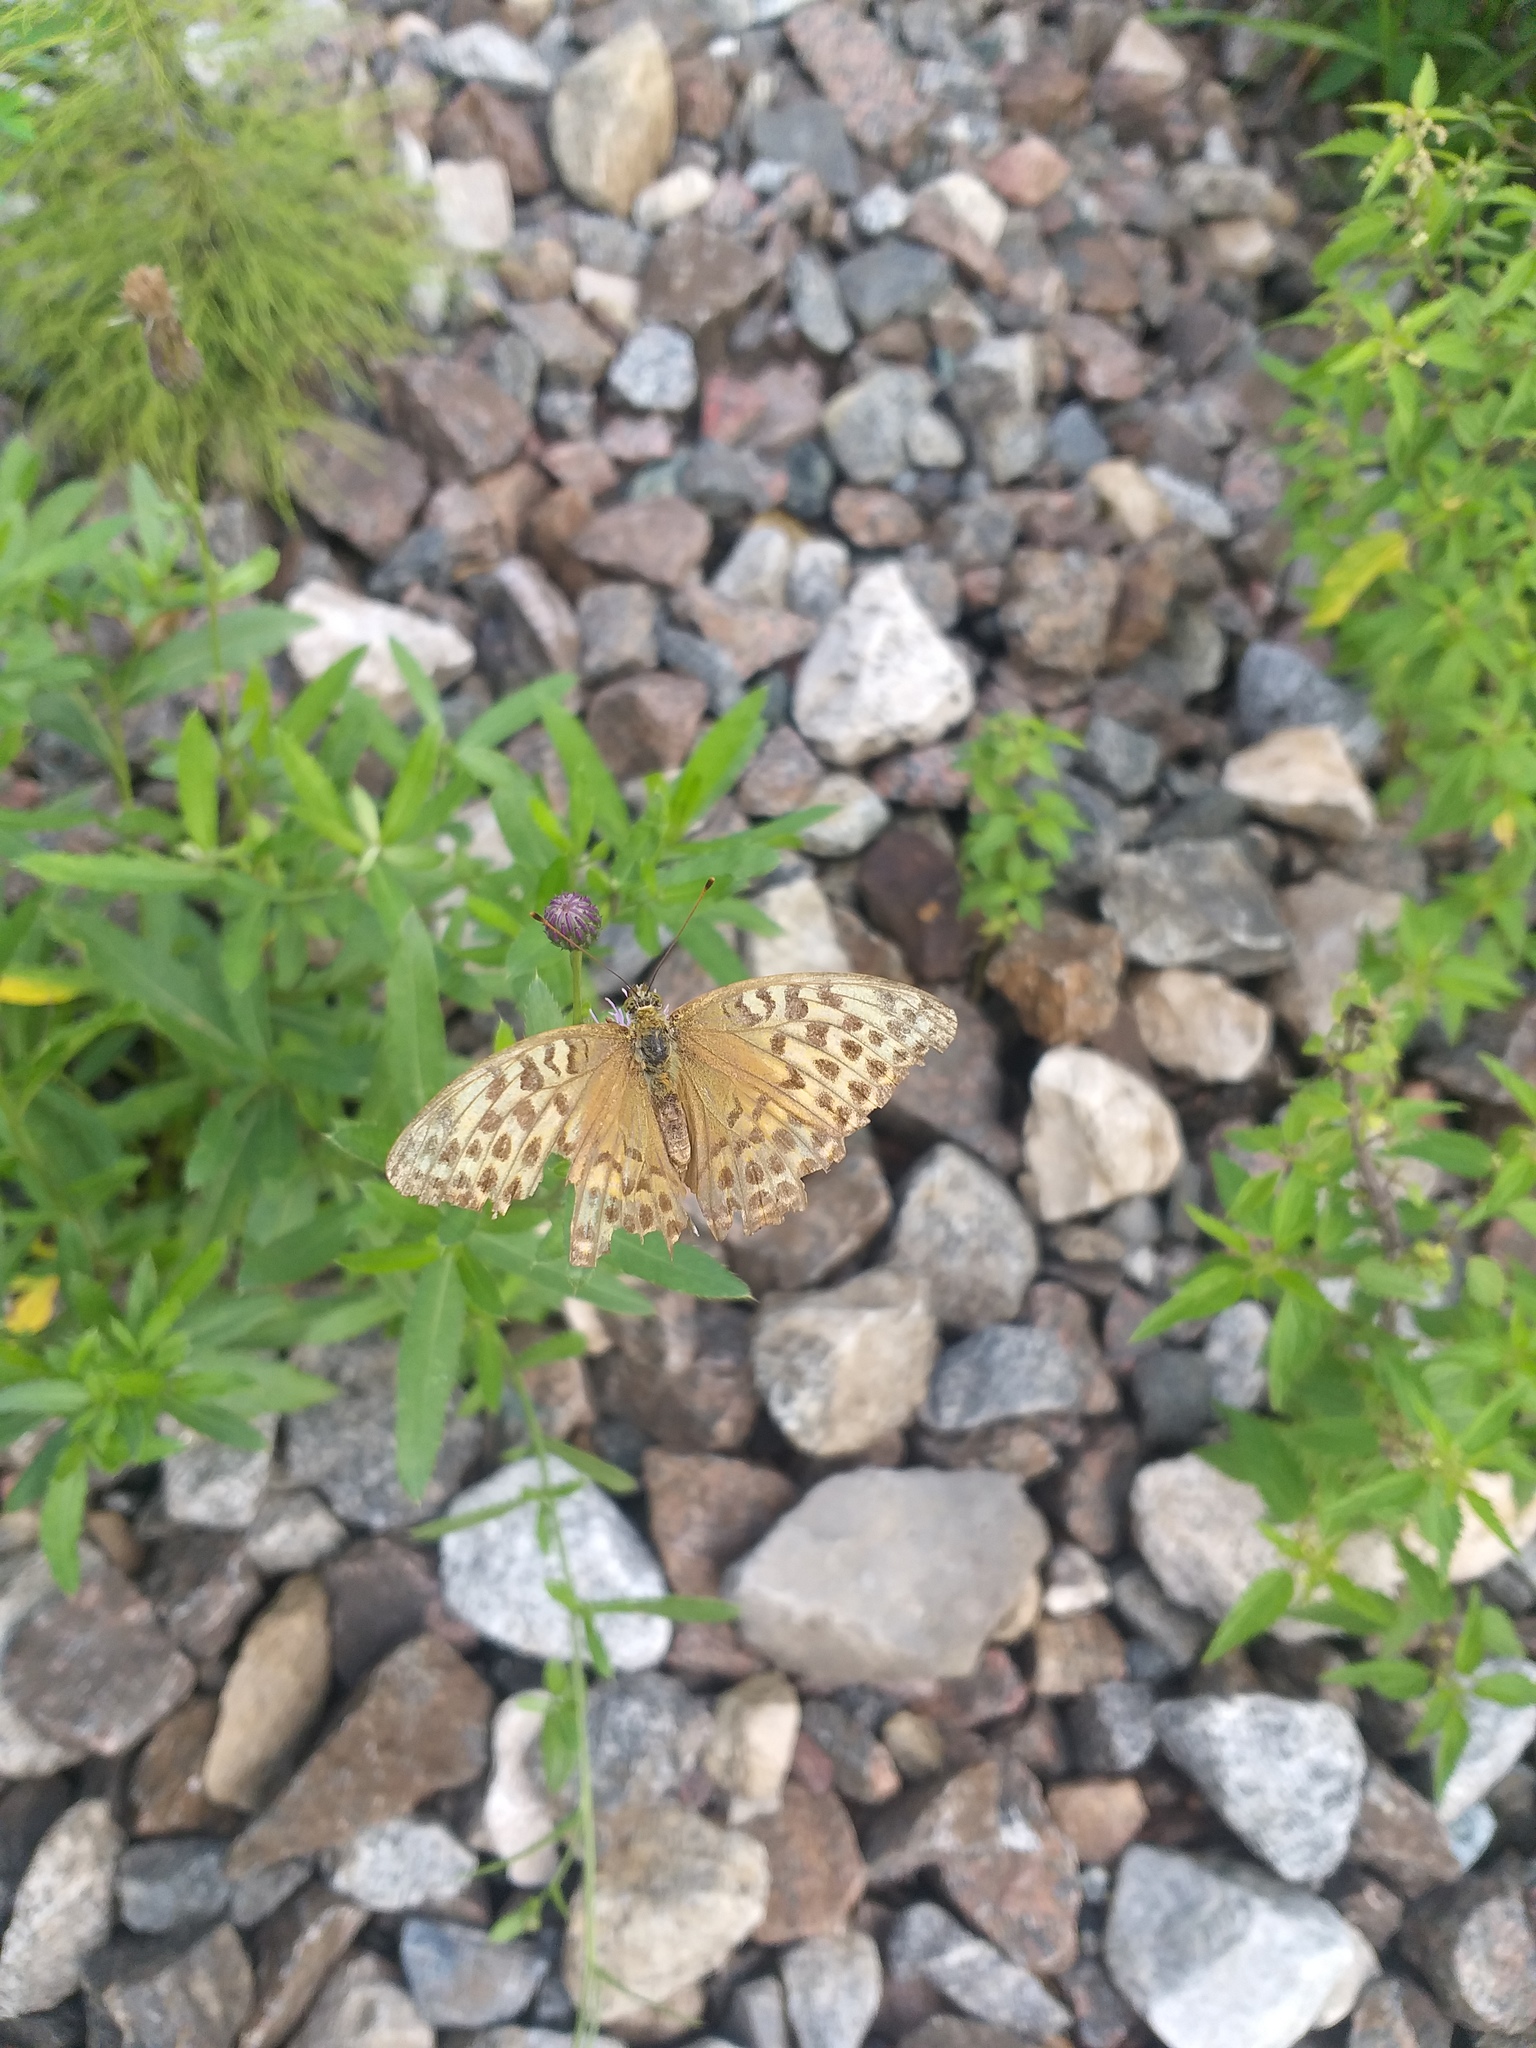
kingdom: Animalia
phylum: Arthropoda
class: Insecta
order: Lepidoptera
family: Nymphalidae
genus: Argynnis
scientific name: Argynnis paphia
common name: Silver-washed fritillary
